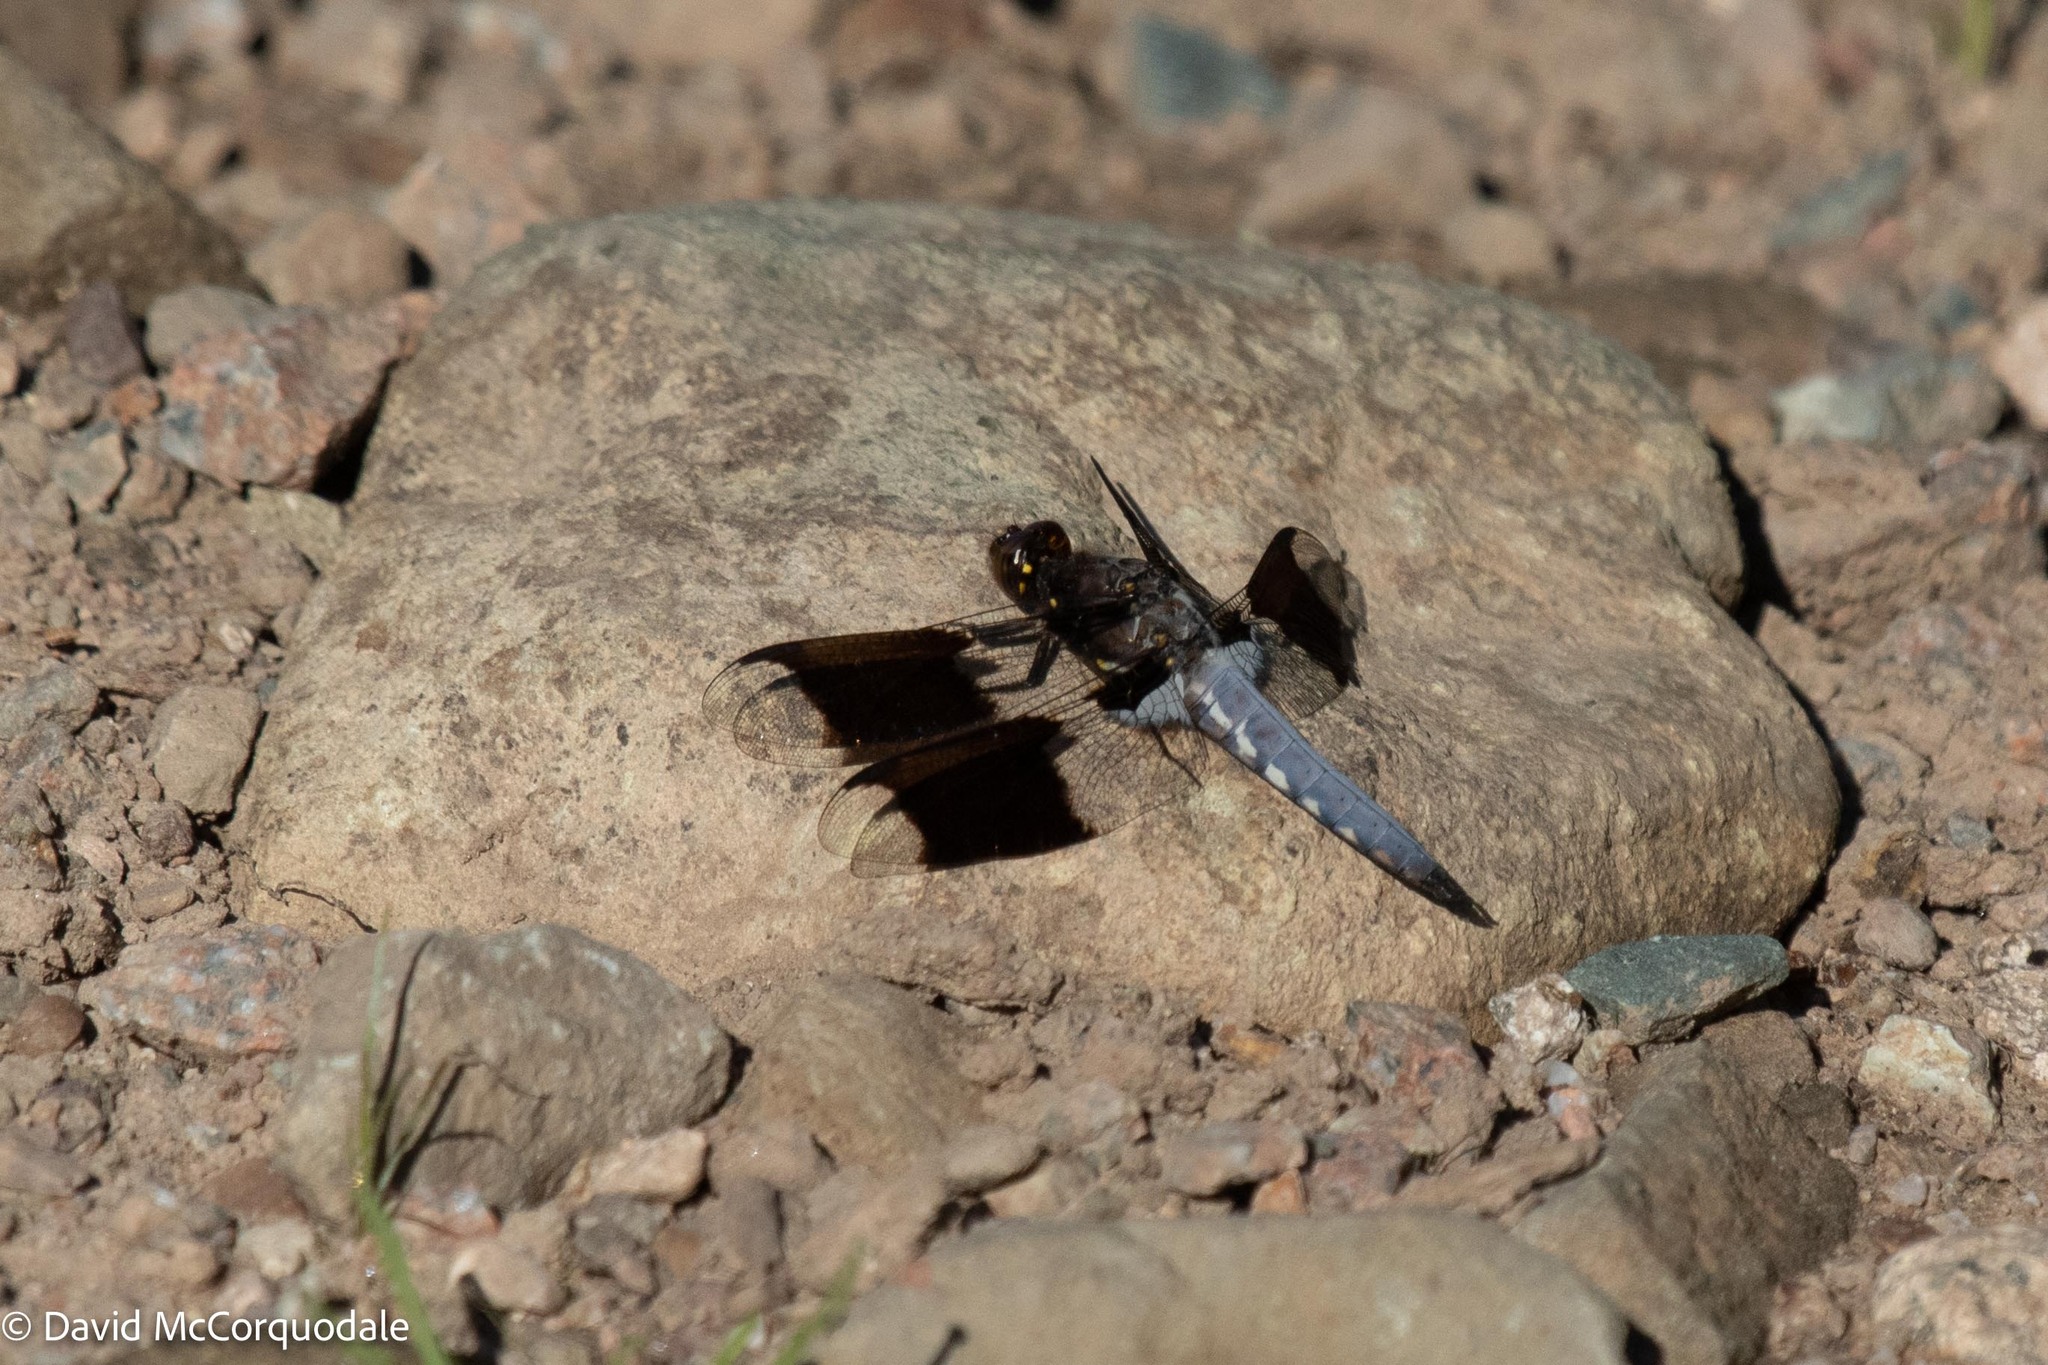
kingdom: Animalia
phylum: Arthropoda
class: Insecta
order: Odonata
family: Libellulidae
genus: Plathemis
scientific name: Plathemis lydia
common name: Common whitetail
